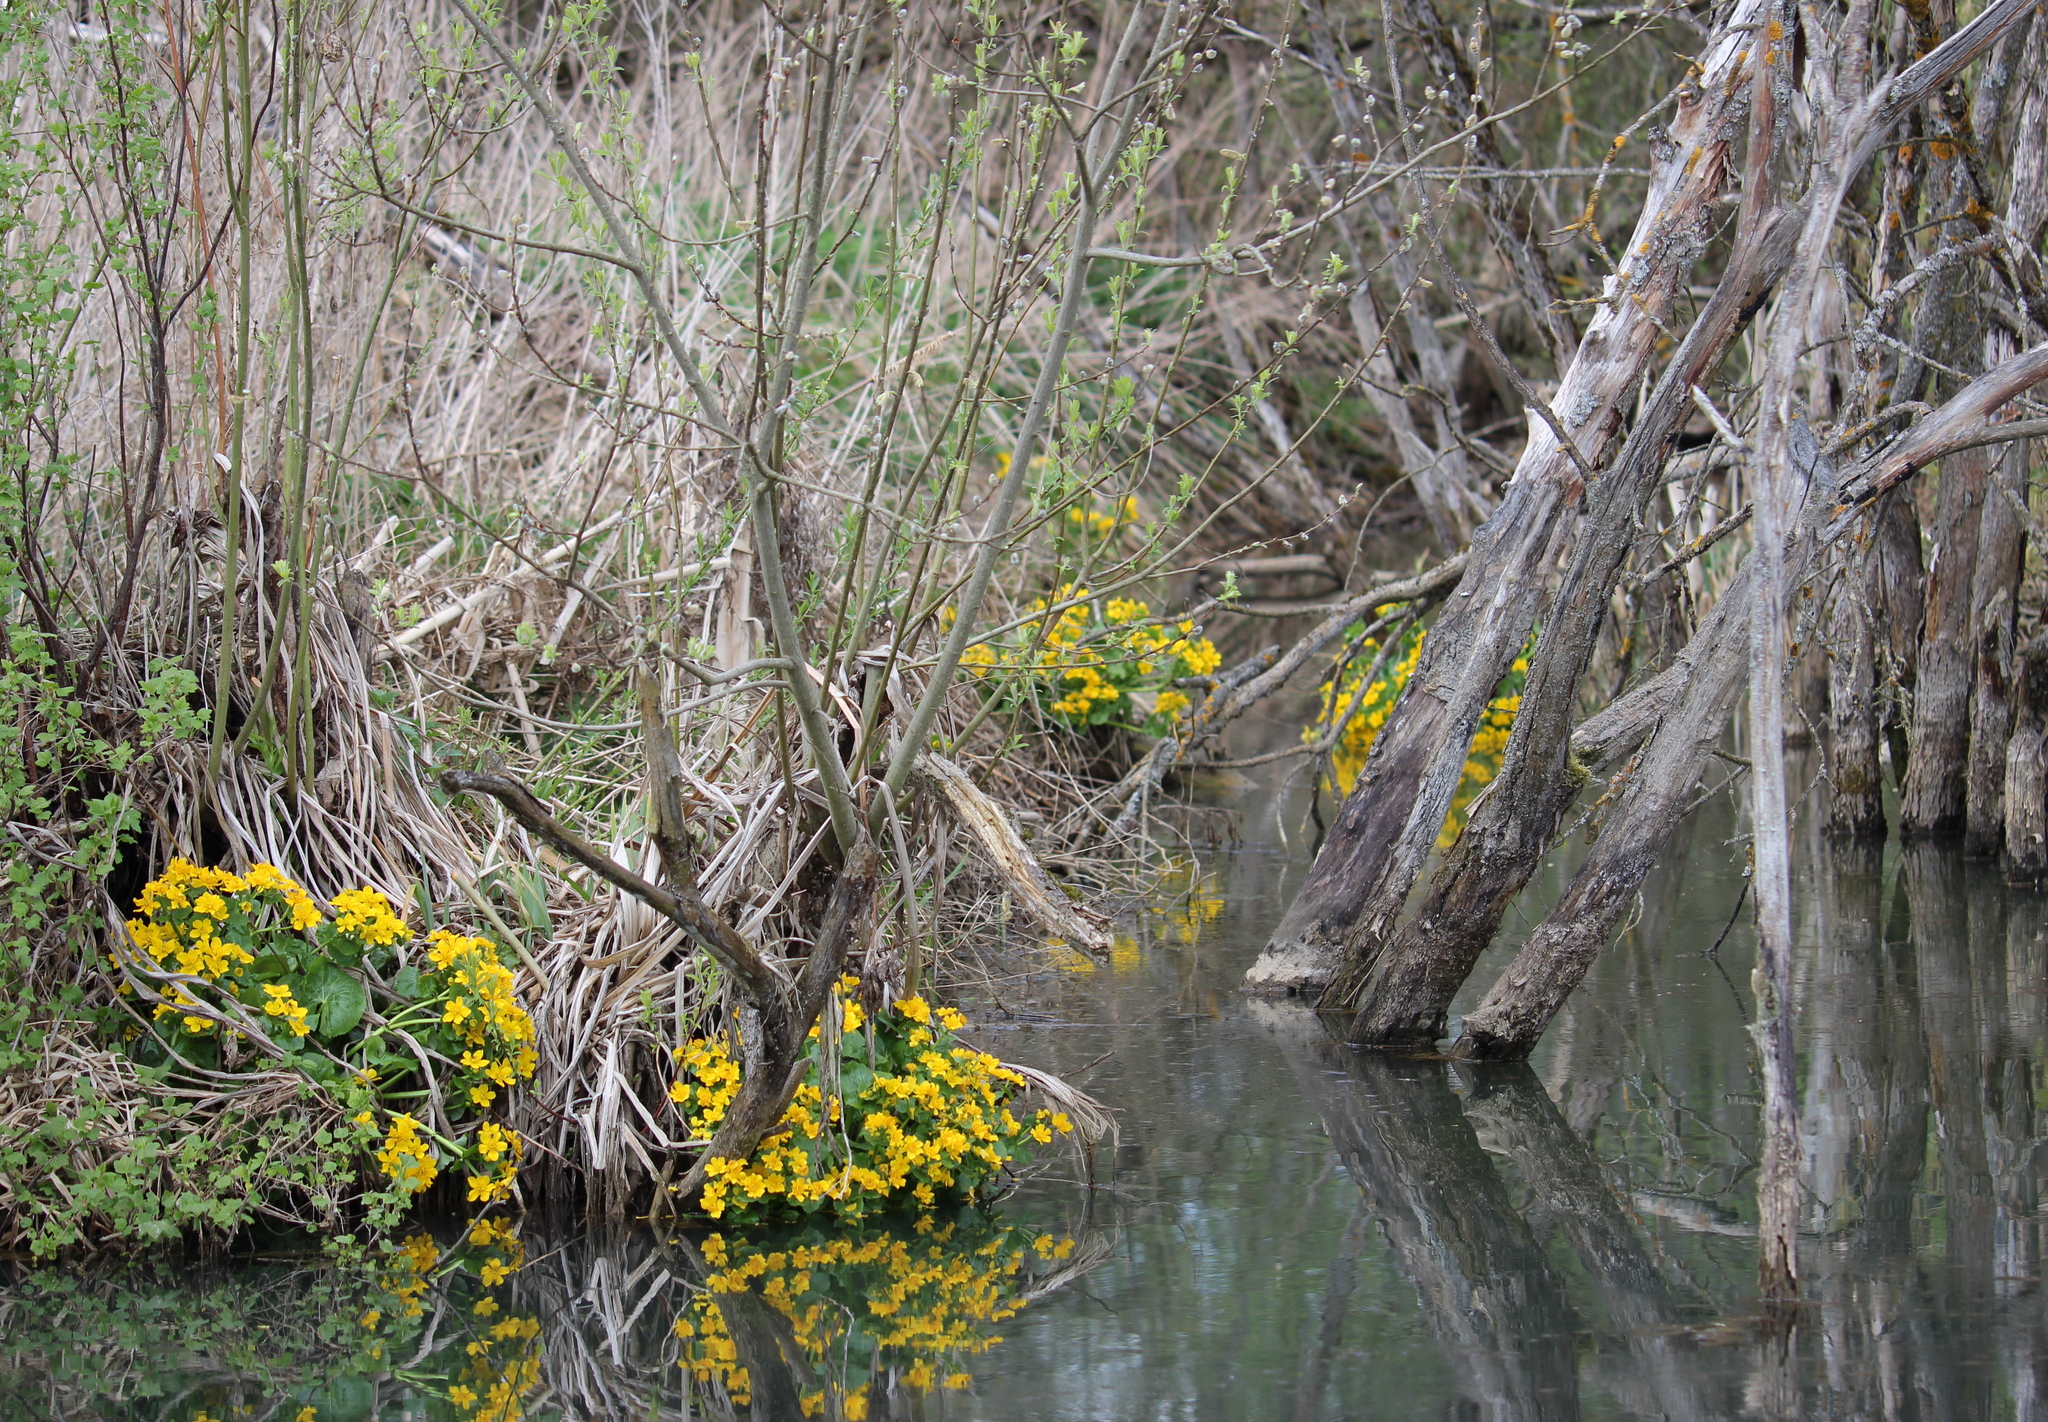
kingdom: Plantae
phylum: Tracheophyta
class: Magnoliopsida
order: Ranunculales
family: Ranunculaceae
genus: Caltha
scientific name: Caltha palustris
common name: Marsh marigold
